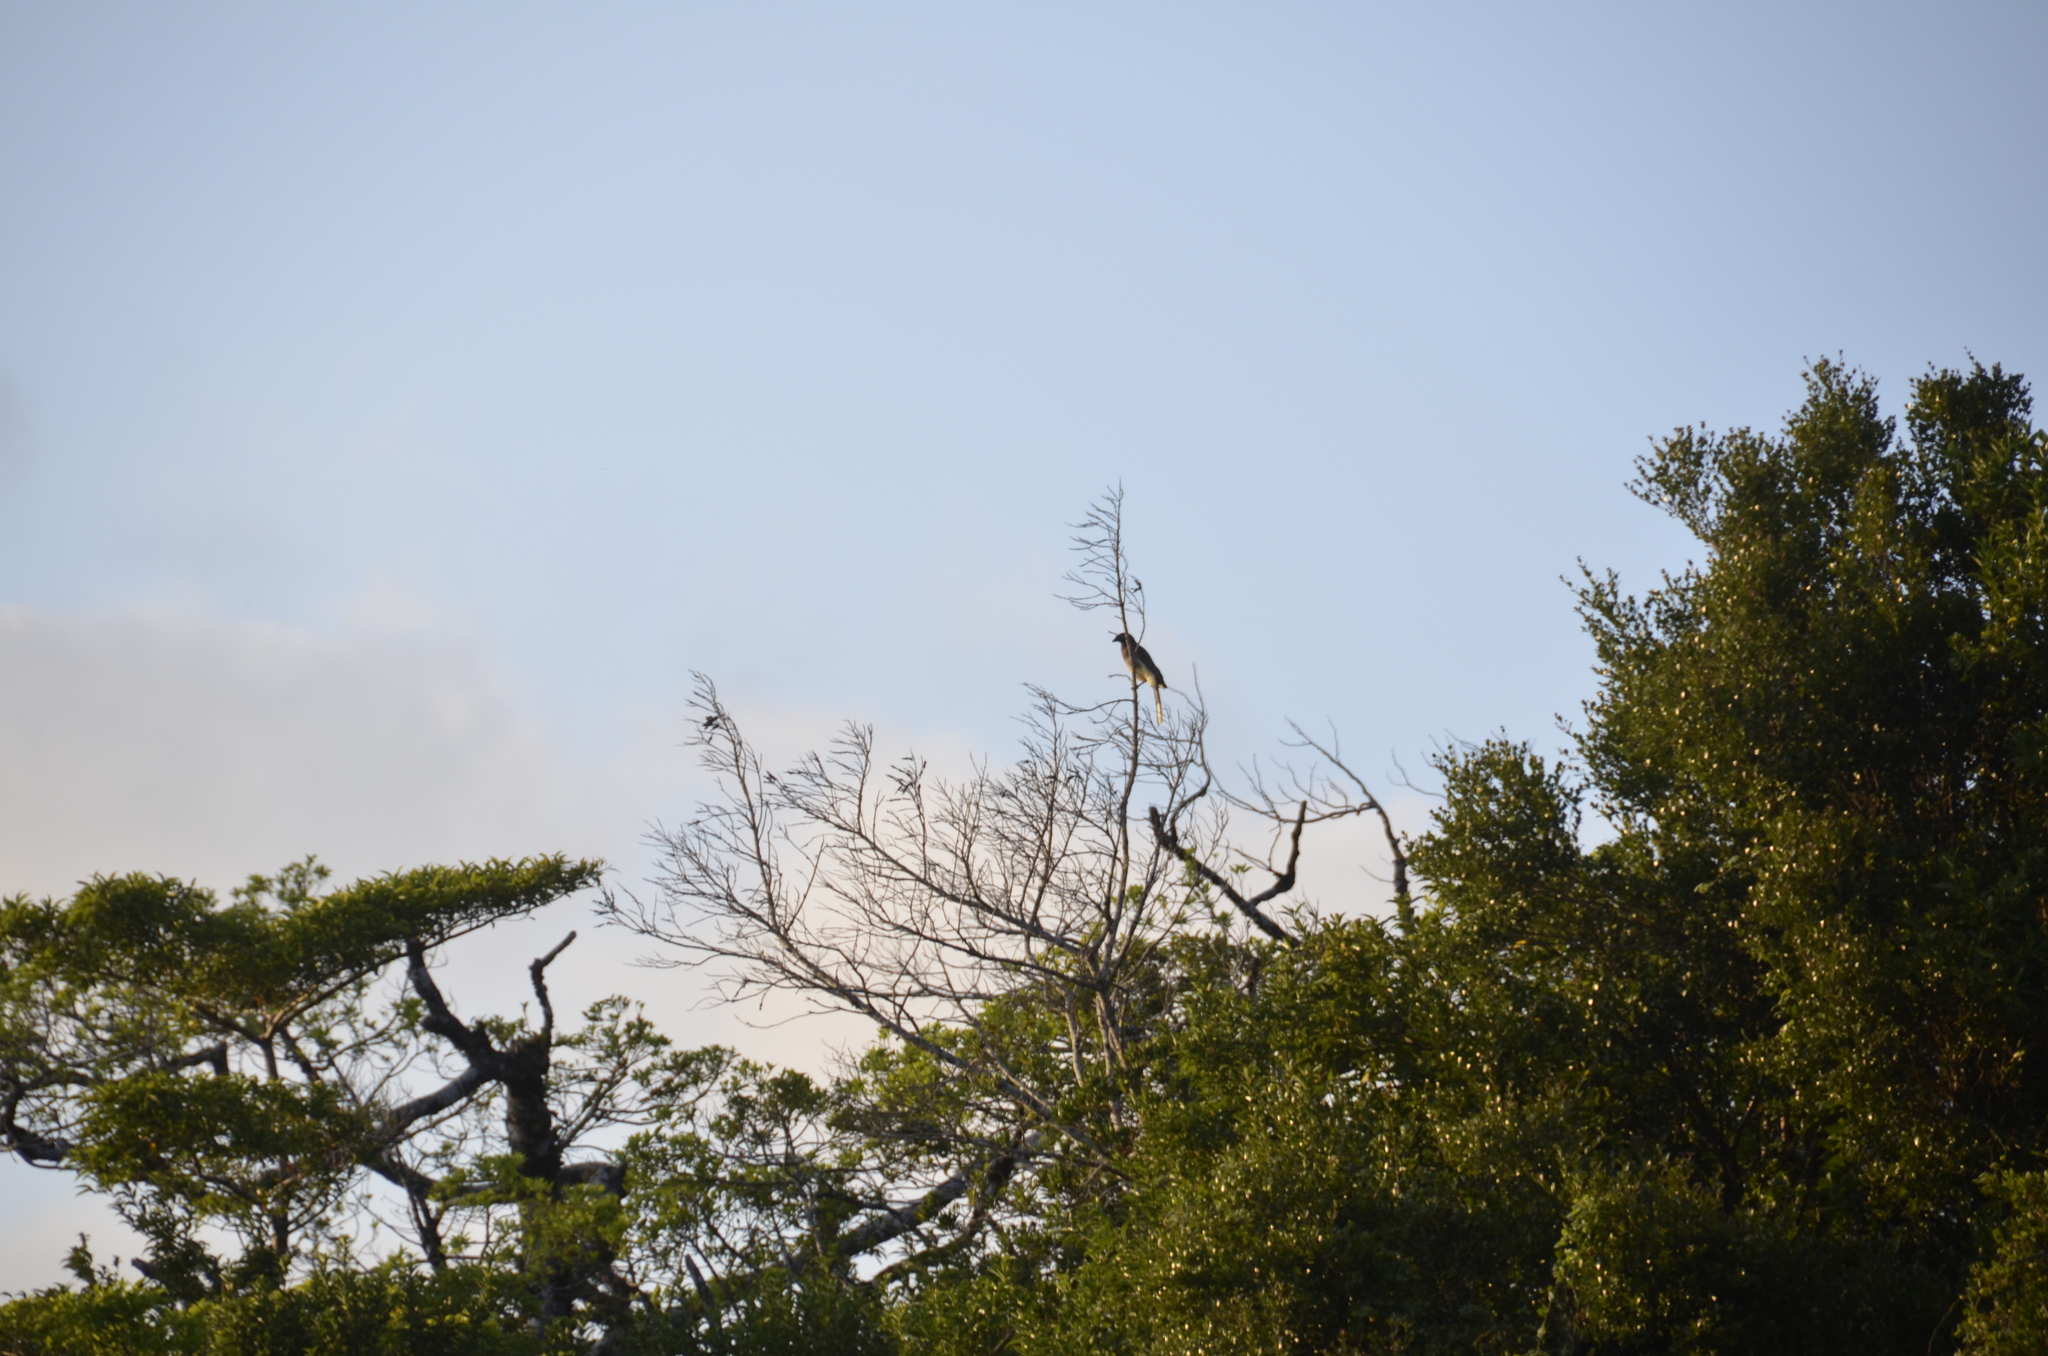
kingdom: Animalia
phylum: Chordata
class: Aves
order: Passeriformes
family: Corvidae
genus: Psilorhinus
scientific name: Psilorhinus morio
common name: Brown jay
